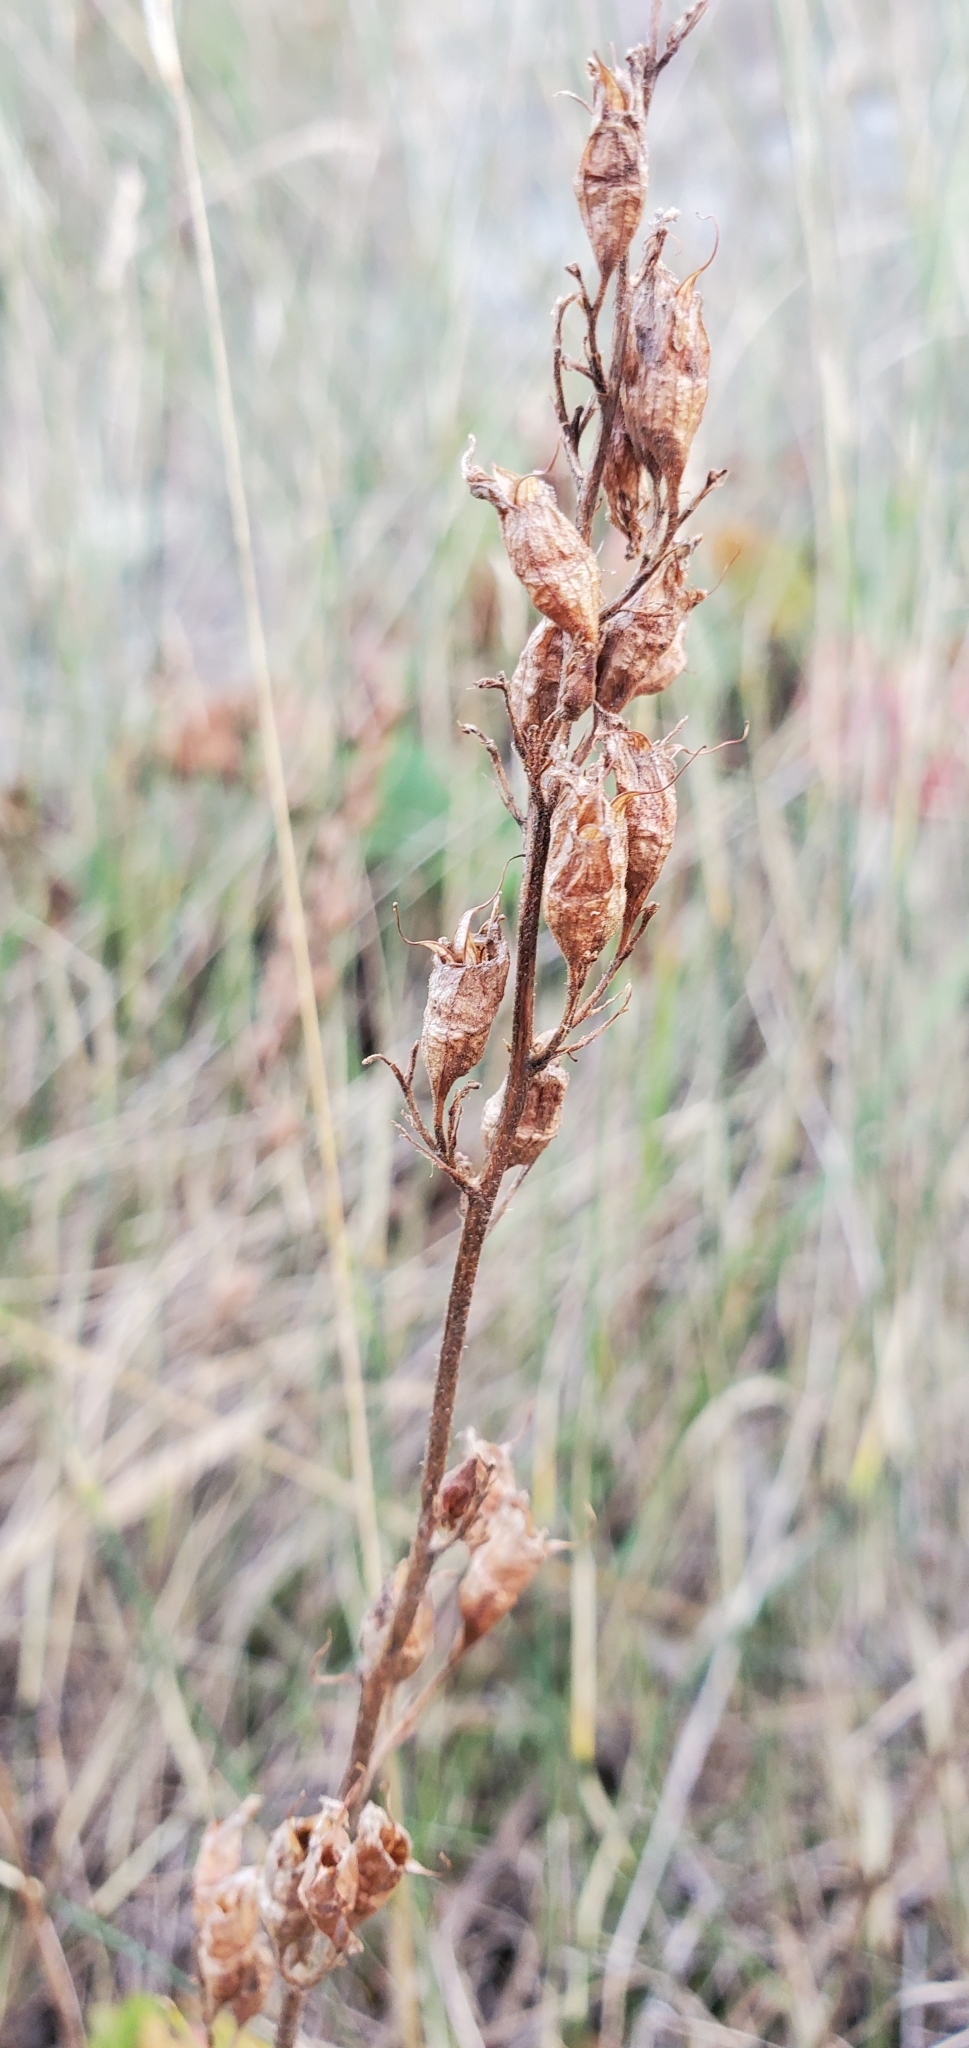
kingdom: Plantae
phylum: Tracheophyta
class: Magnoliopsida
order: Saxifragales
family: Saxifragaceae
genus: Heuchera
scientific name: Heuchera richardsonii
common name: Richardson's alumroot
